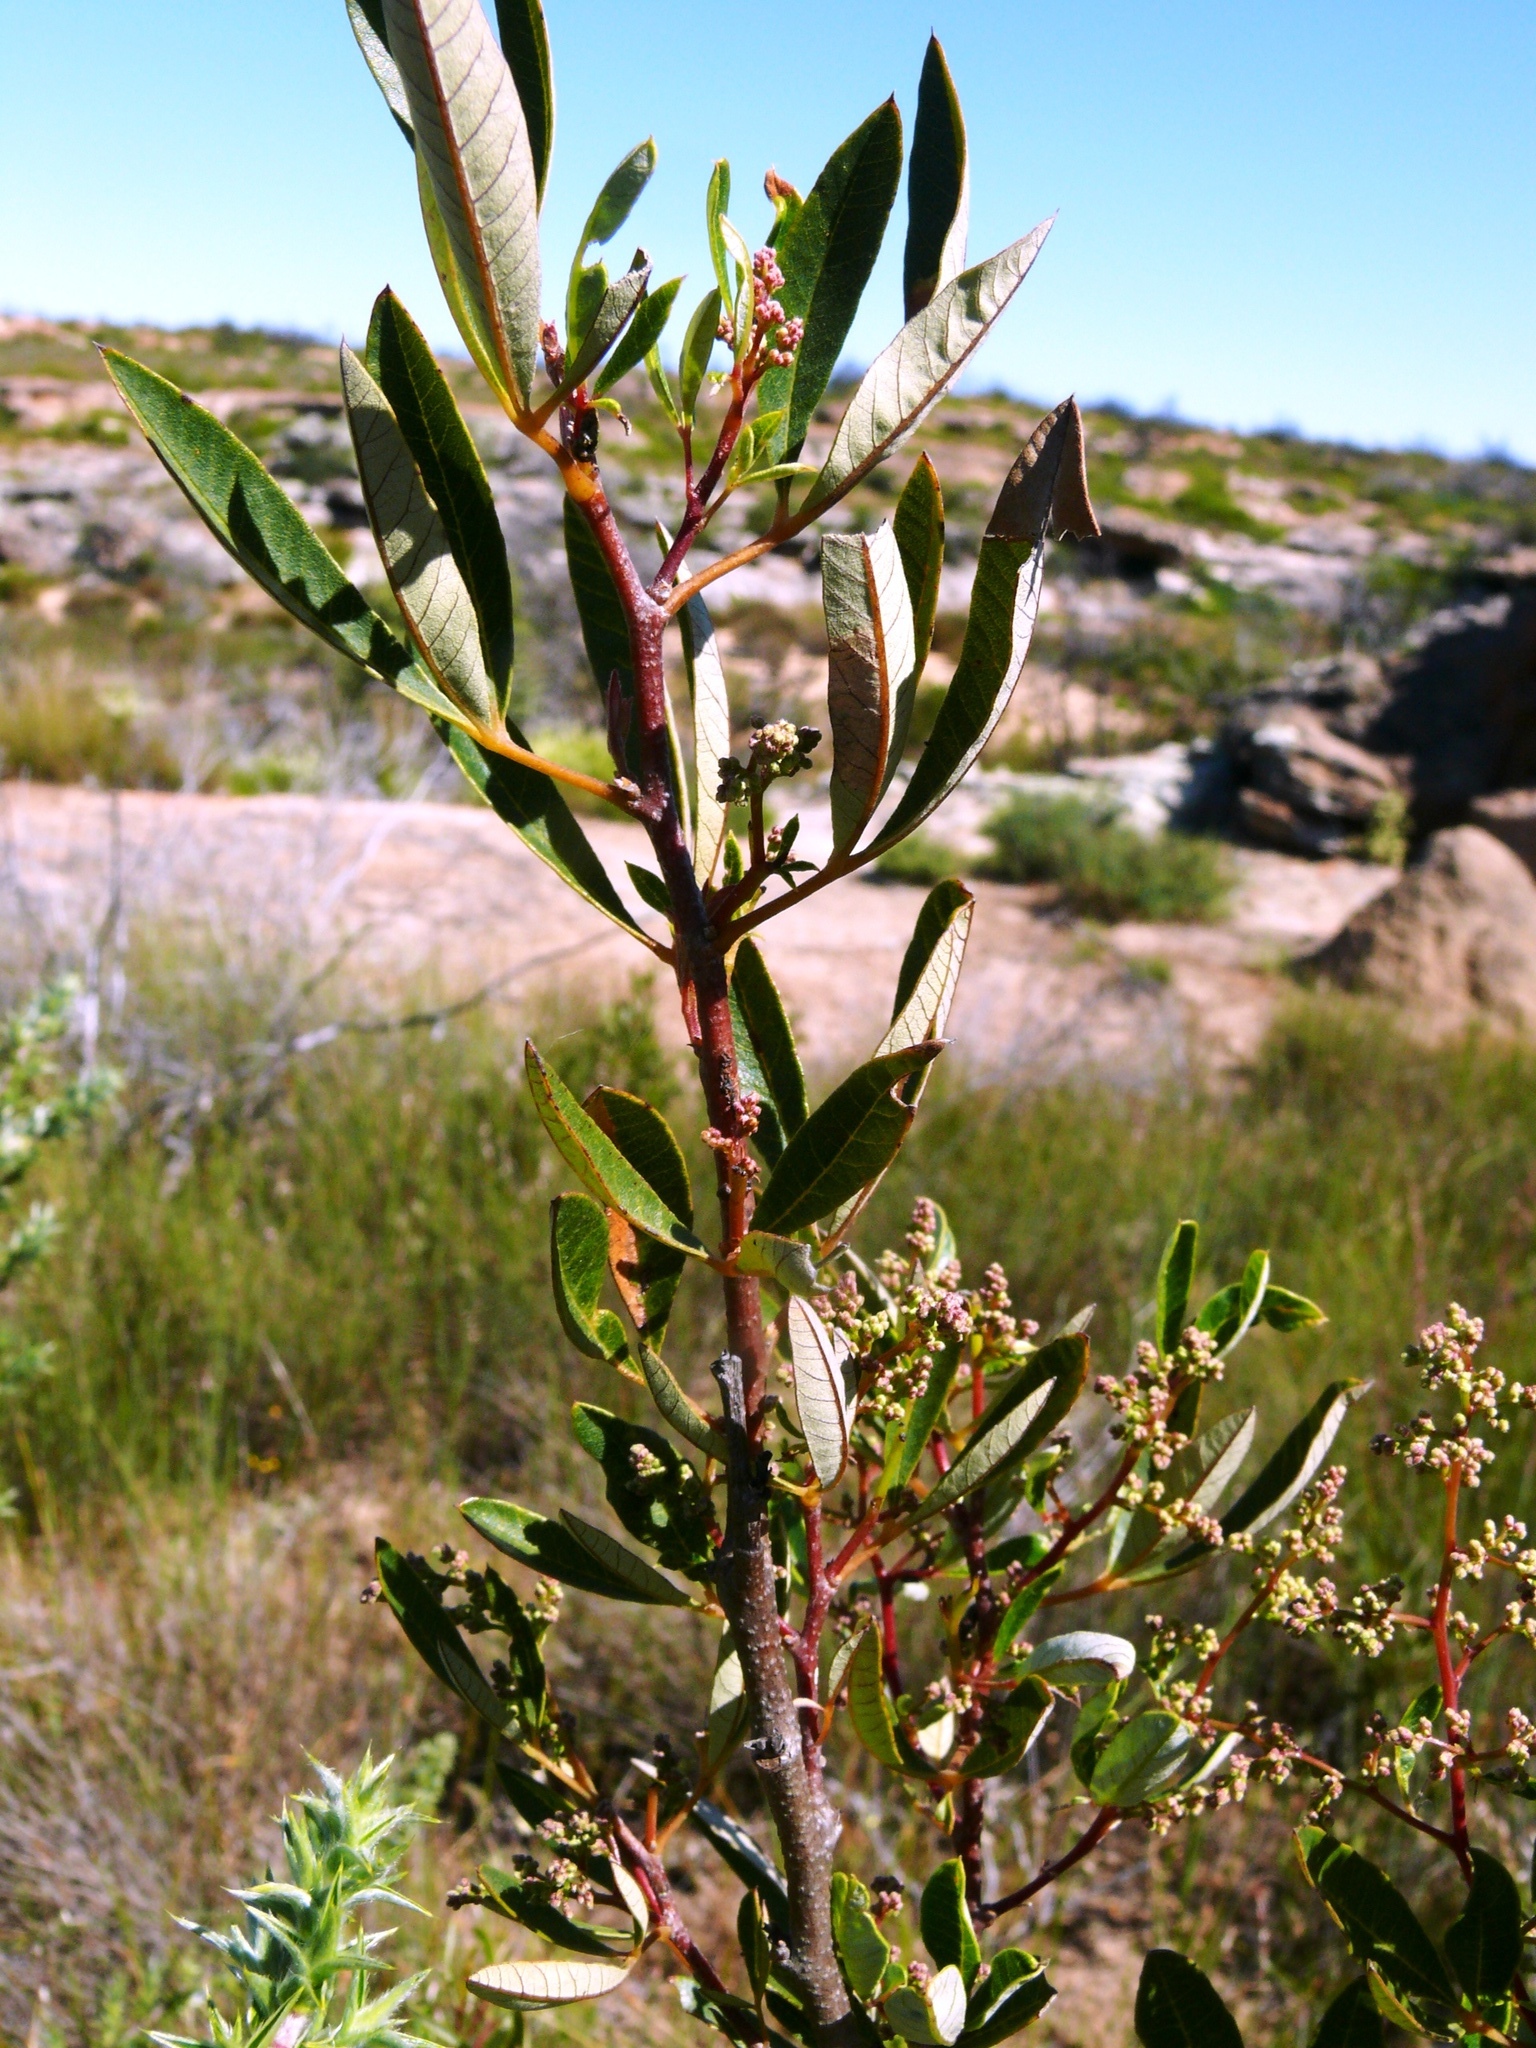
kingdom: Plantae
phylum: Tracheophyta
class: Magnoliopsida
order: Sapindales
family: Anacardiaceae
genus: Searsia
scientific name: Searsia angustifolia
